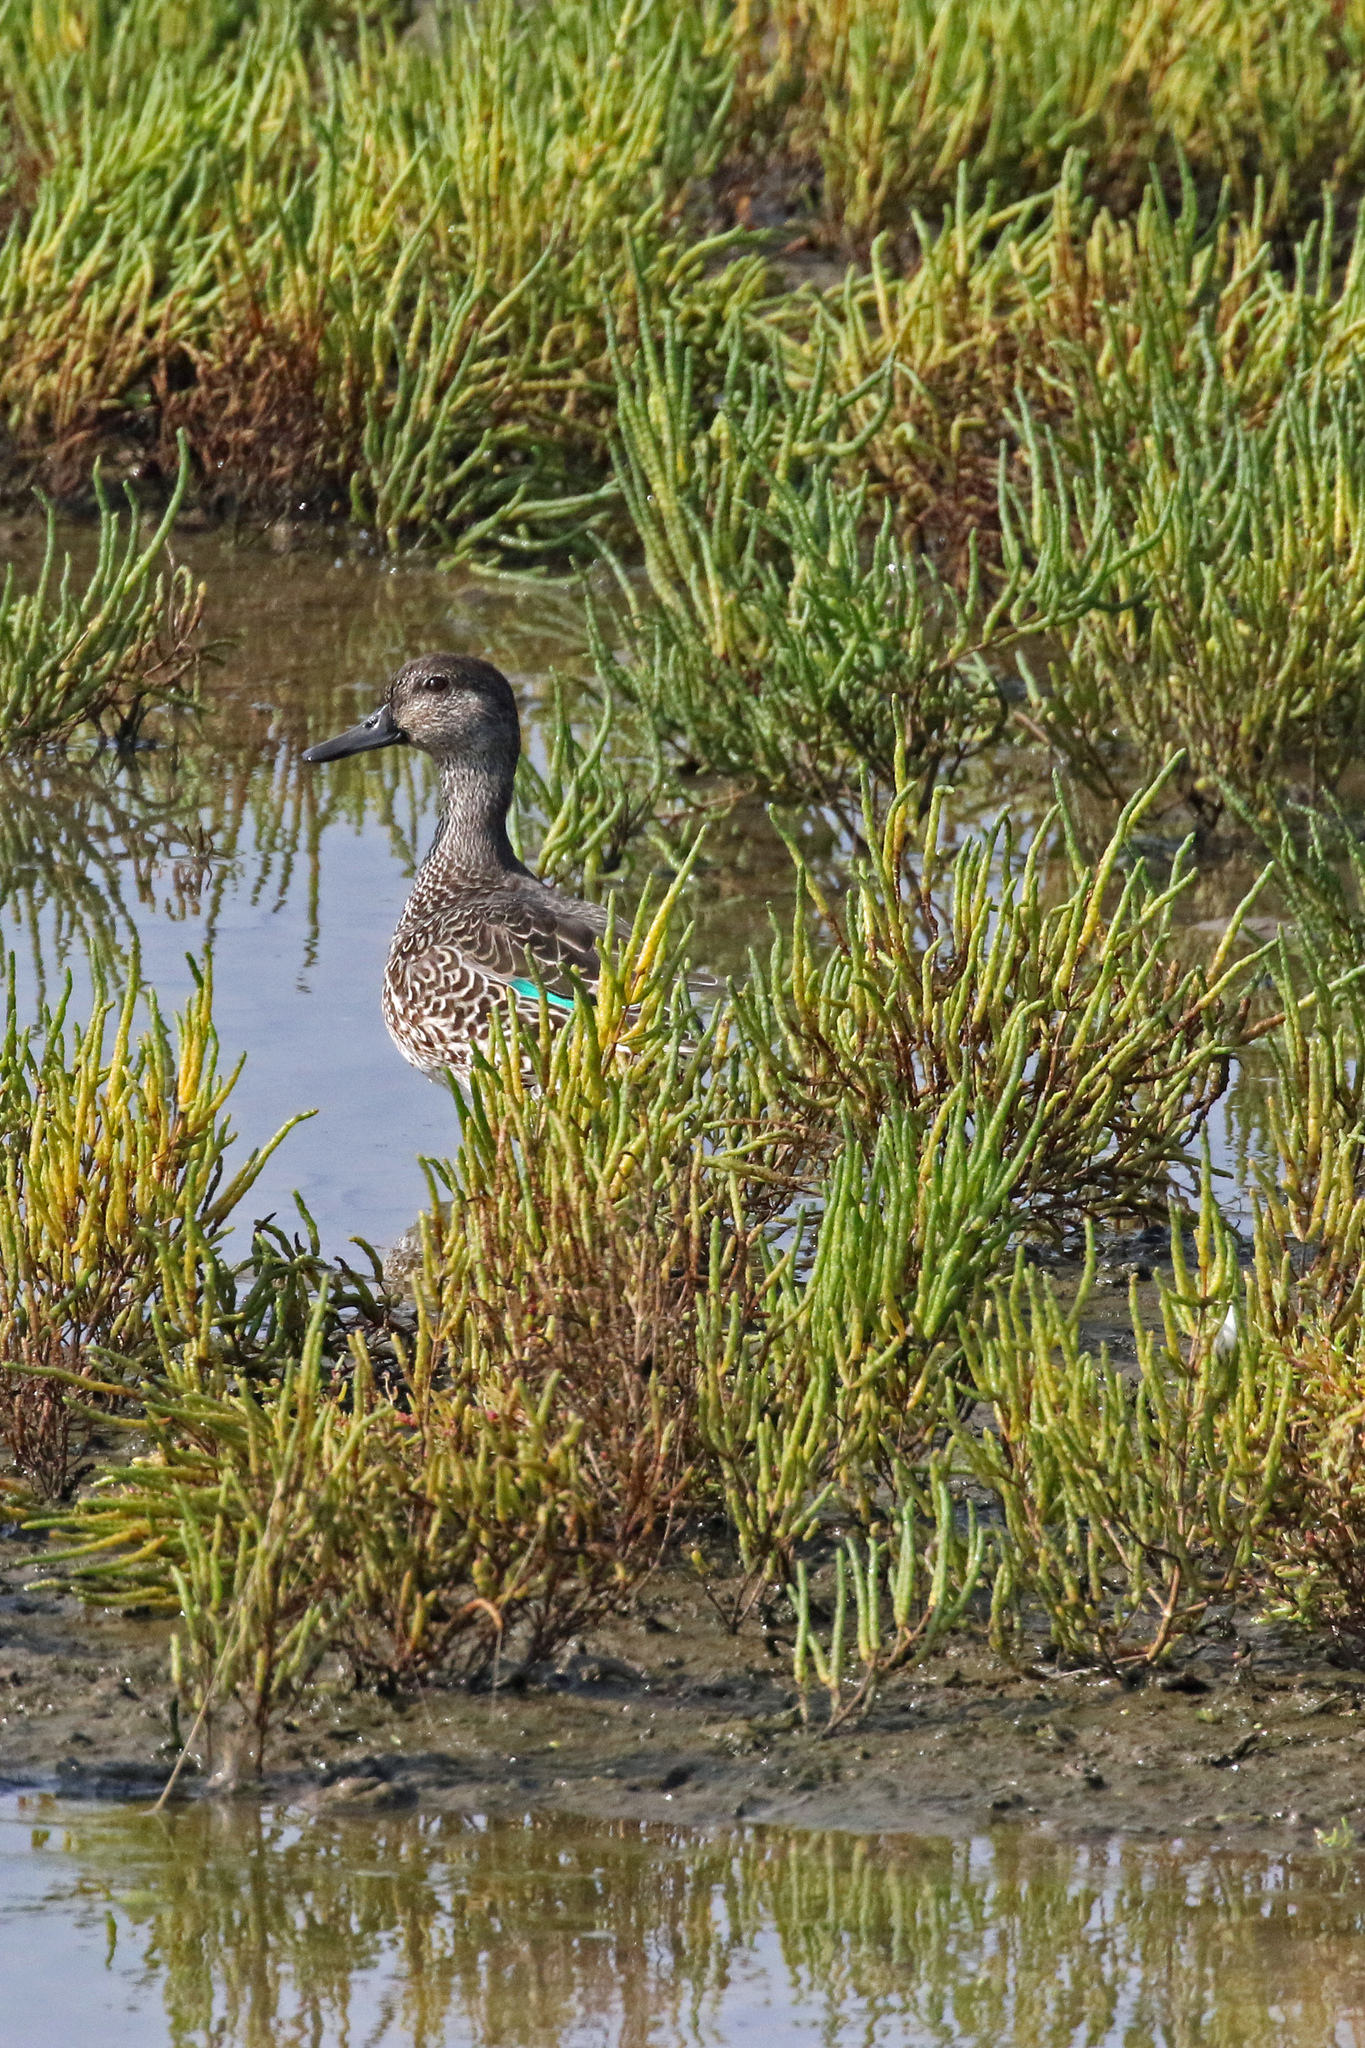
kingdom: Animalia
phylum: Chordata
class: Aves
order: Anseriformes
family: Anatidae
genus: Anas
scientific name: Anas crecca
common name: Eurasian teal
